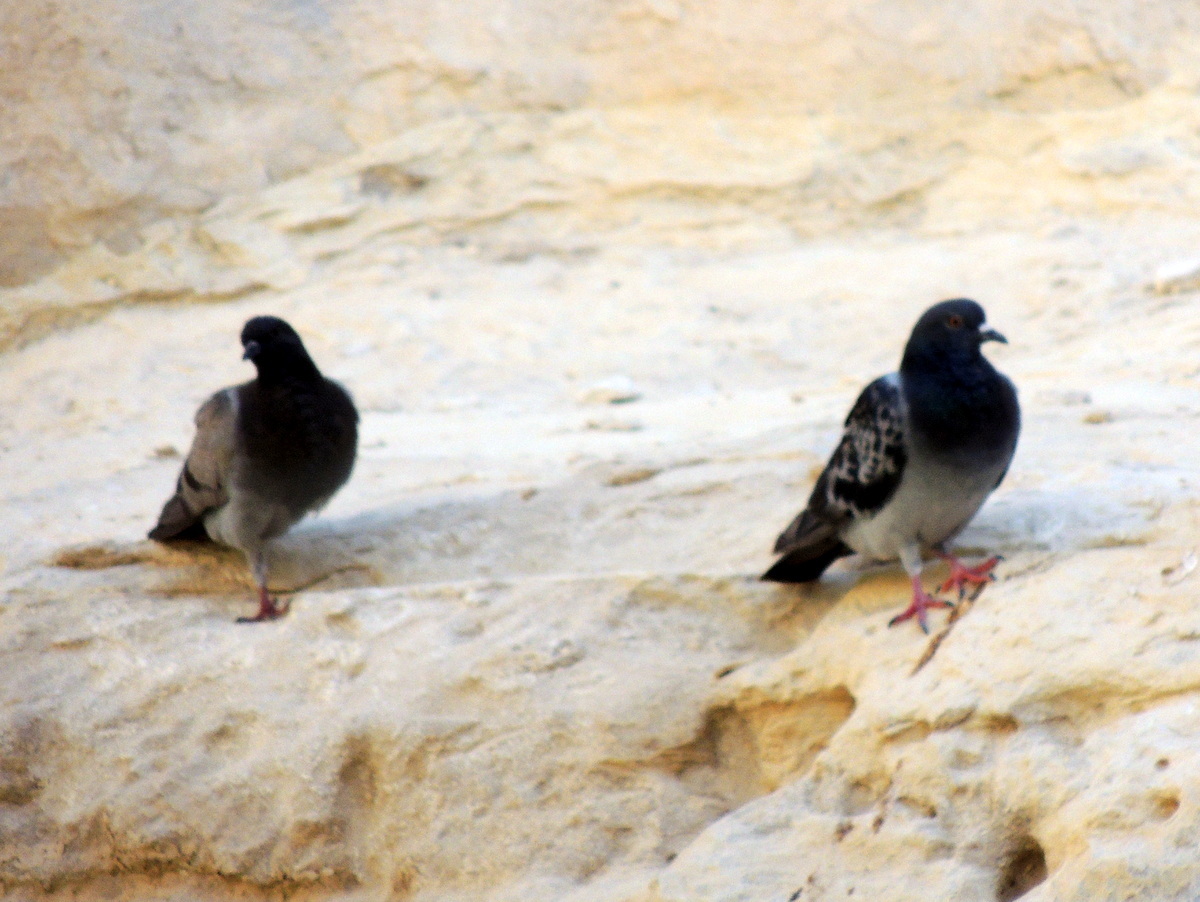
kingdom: Animalia
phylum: Chordata
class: Aves
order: Columbiformes
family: Columbidae
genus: Columba
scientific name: Columba livia
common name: Rock pigeon
